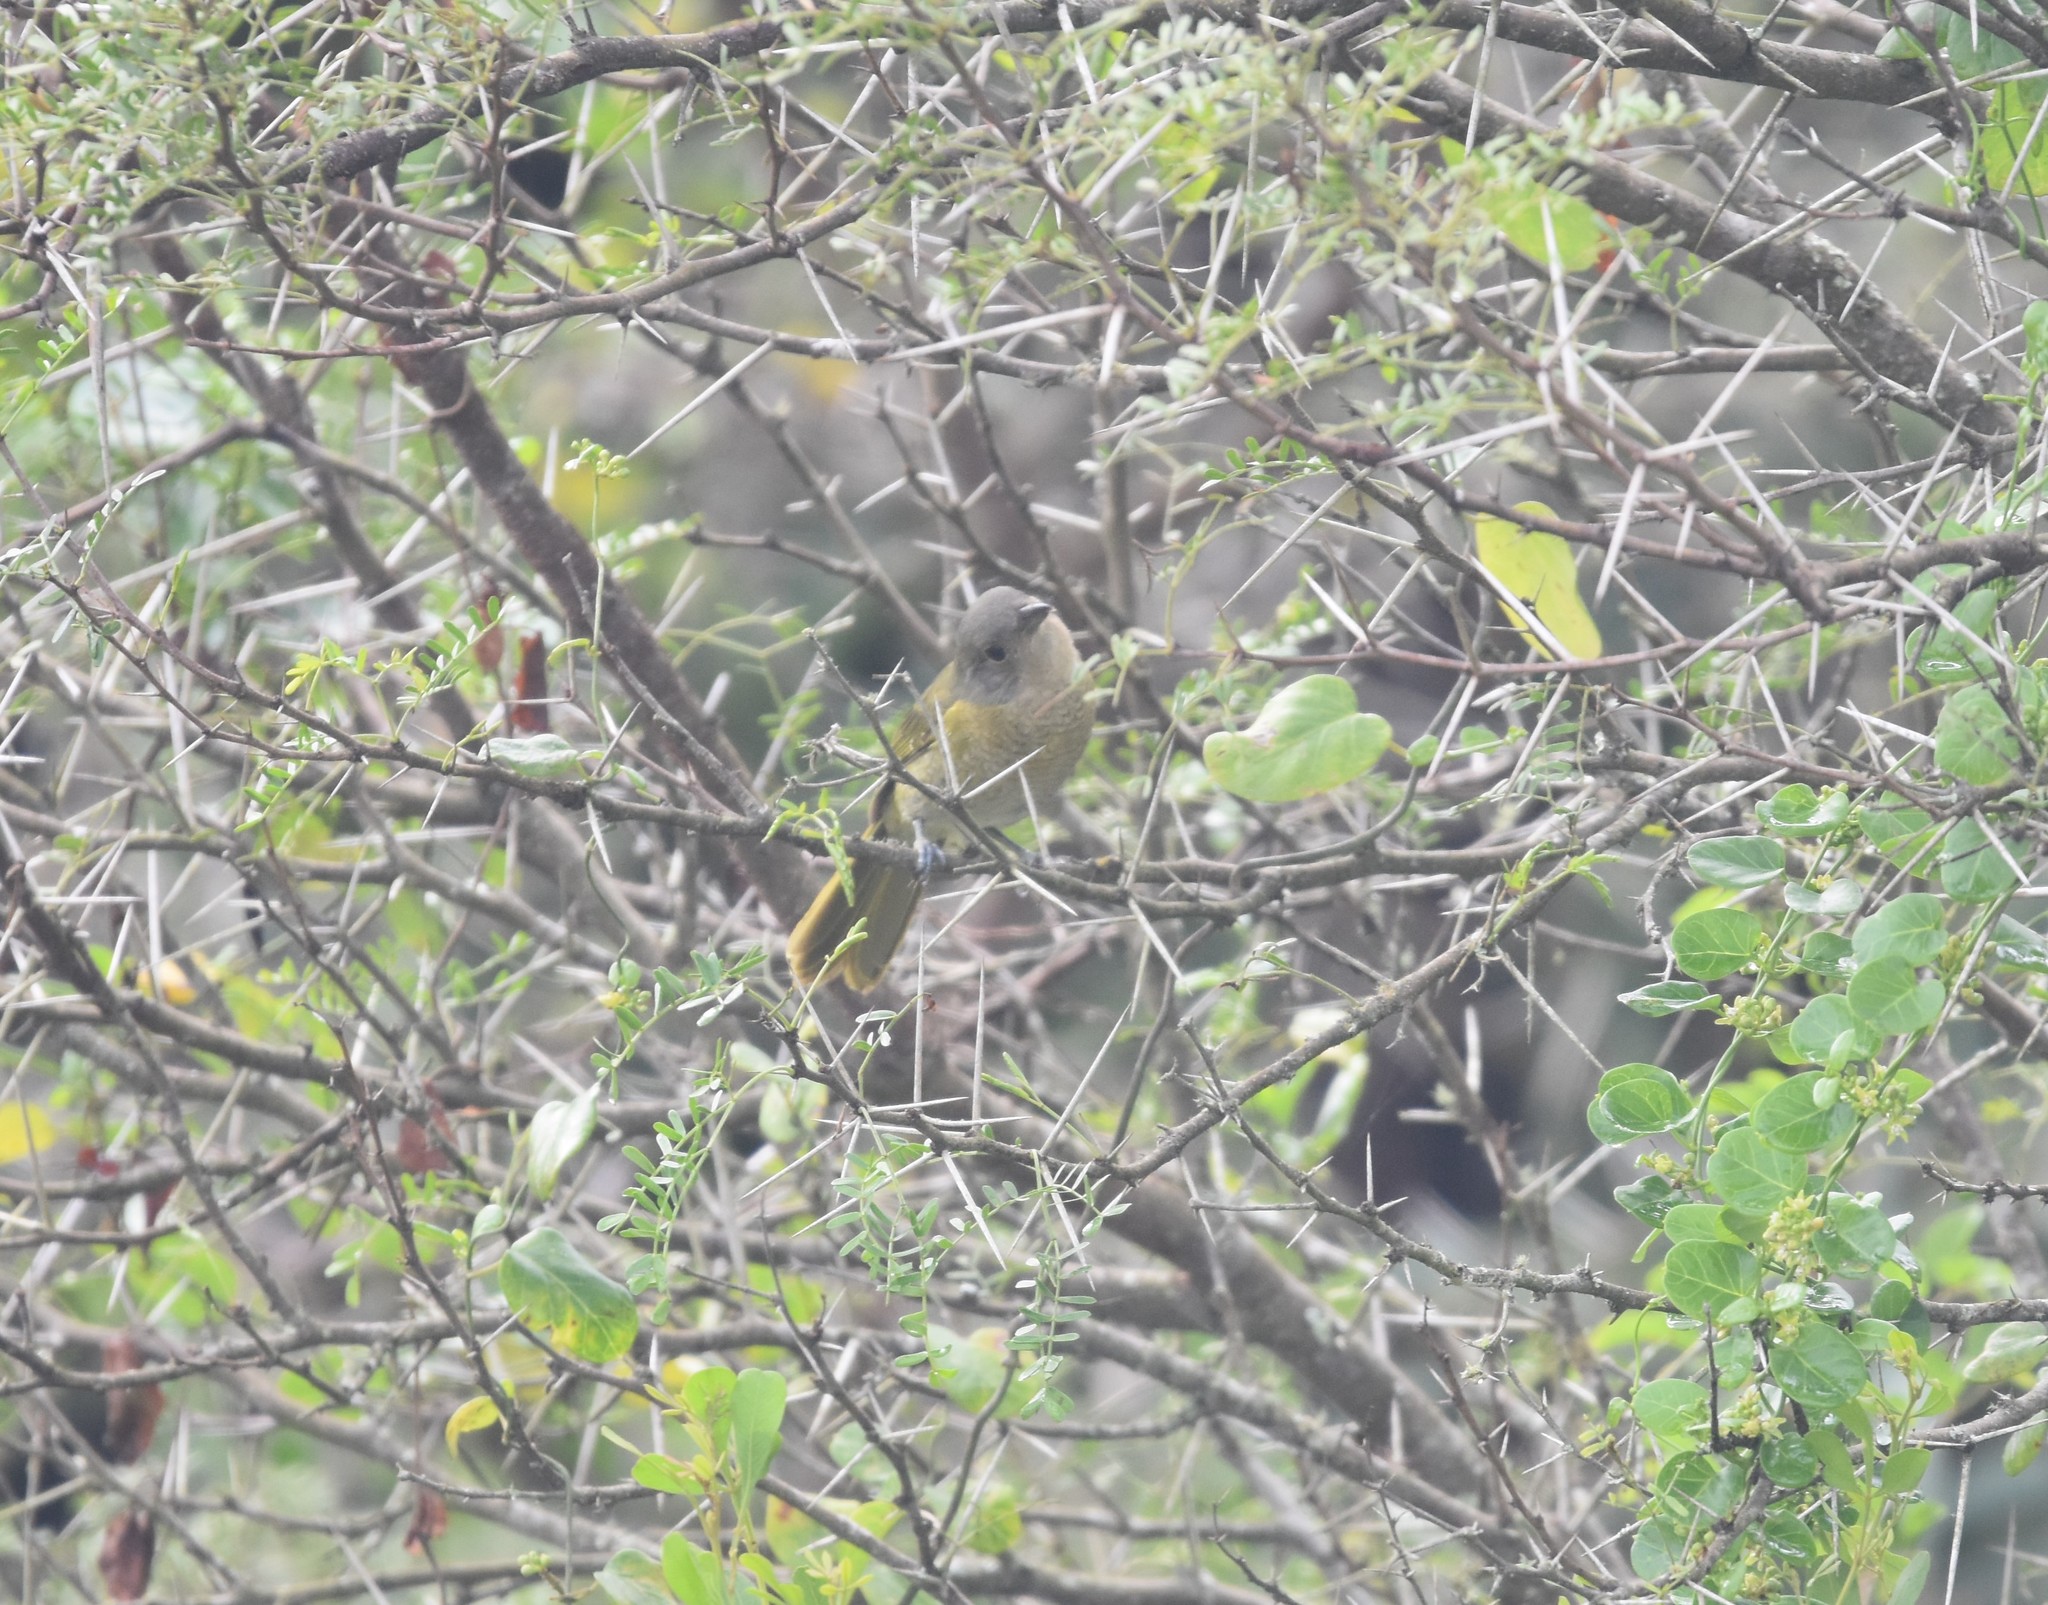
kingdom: Animalia
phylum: Chordata
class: Aves
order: Passeriformes
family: Malaconotidae
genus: Chlorophoneus
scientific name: Chlorophoneus olivaceus
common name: Olive bushshrike
